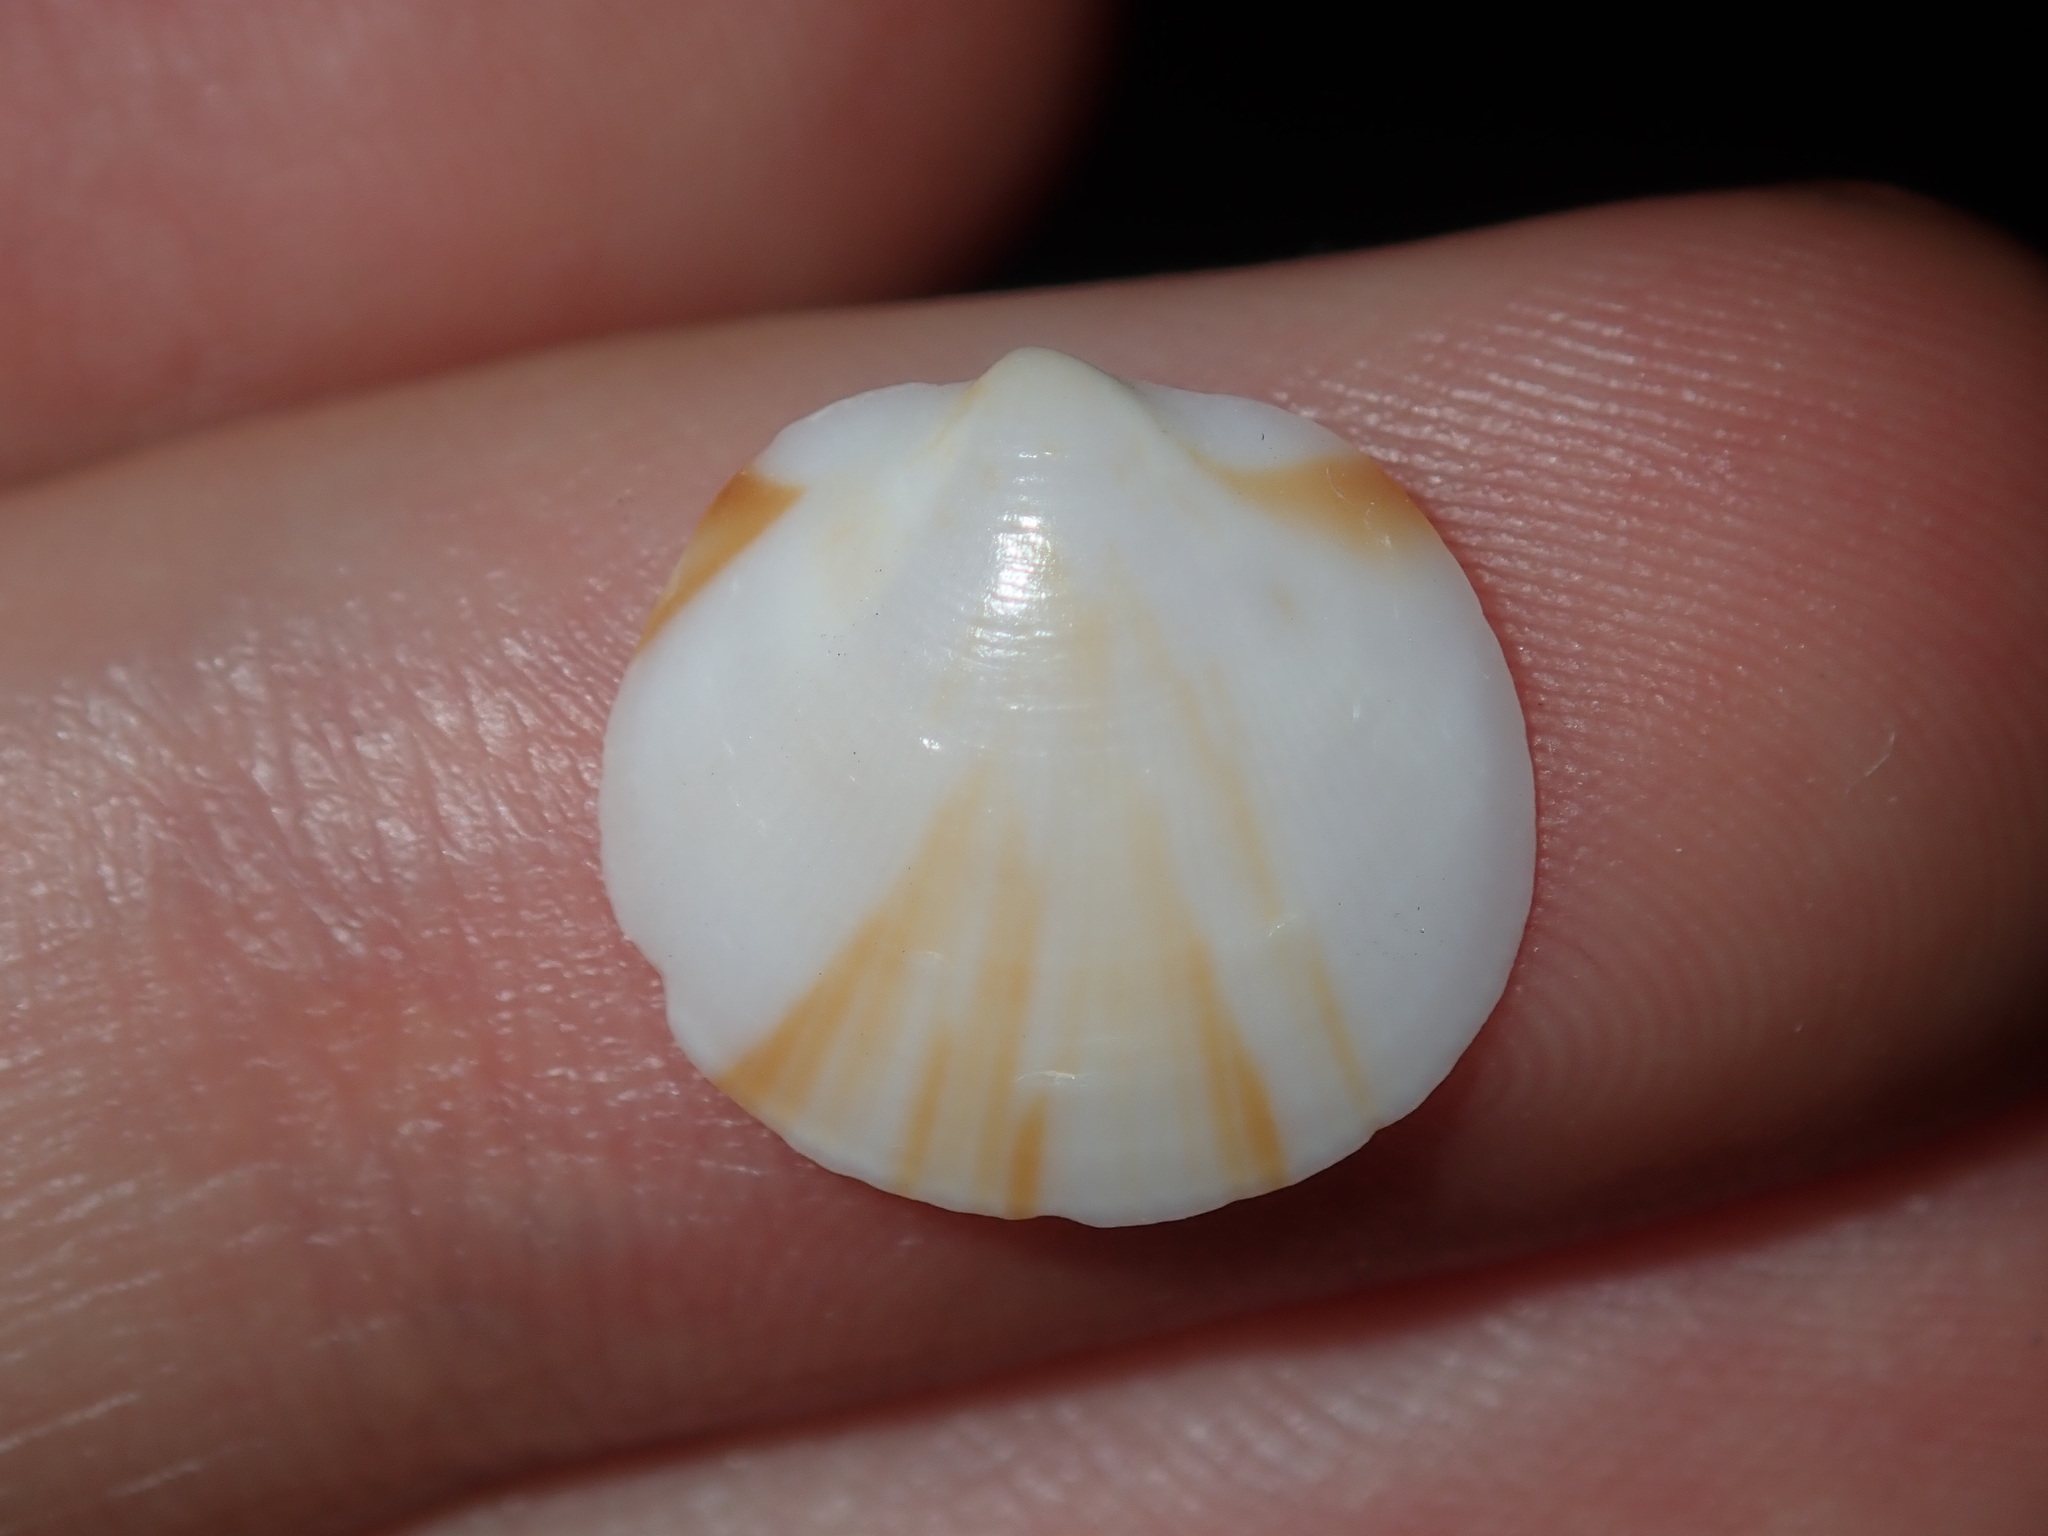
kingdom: Animalia
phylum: Mollusca
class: Bivalvia
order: Arcida
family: Glycymerididae
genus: Glycymeris
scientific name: Glycymeris grayana
